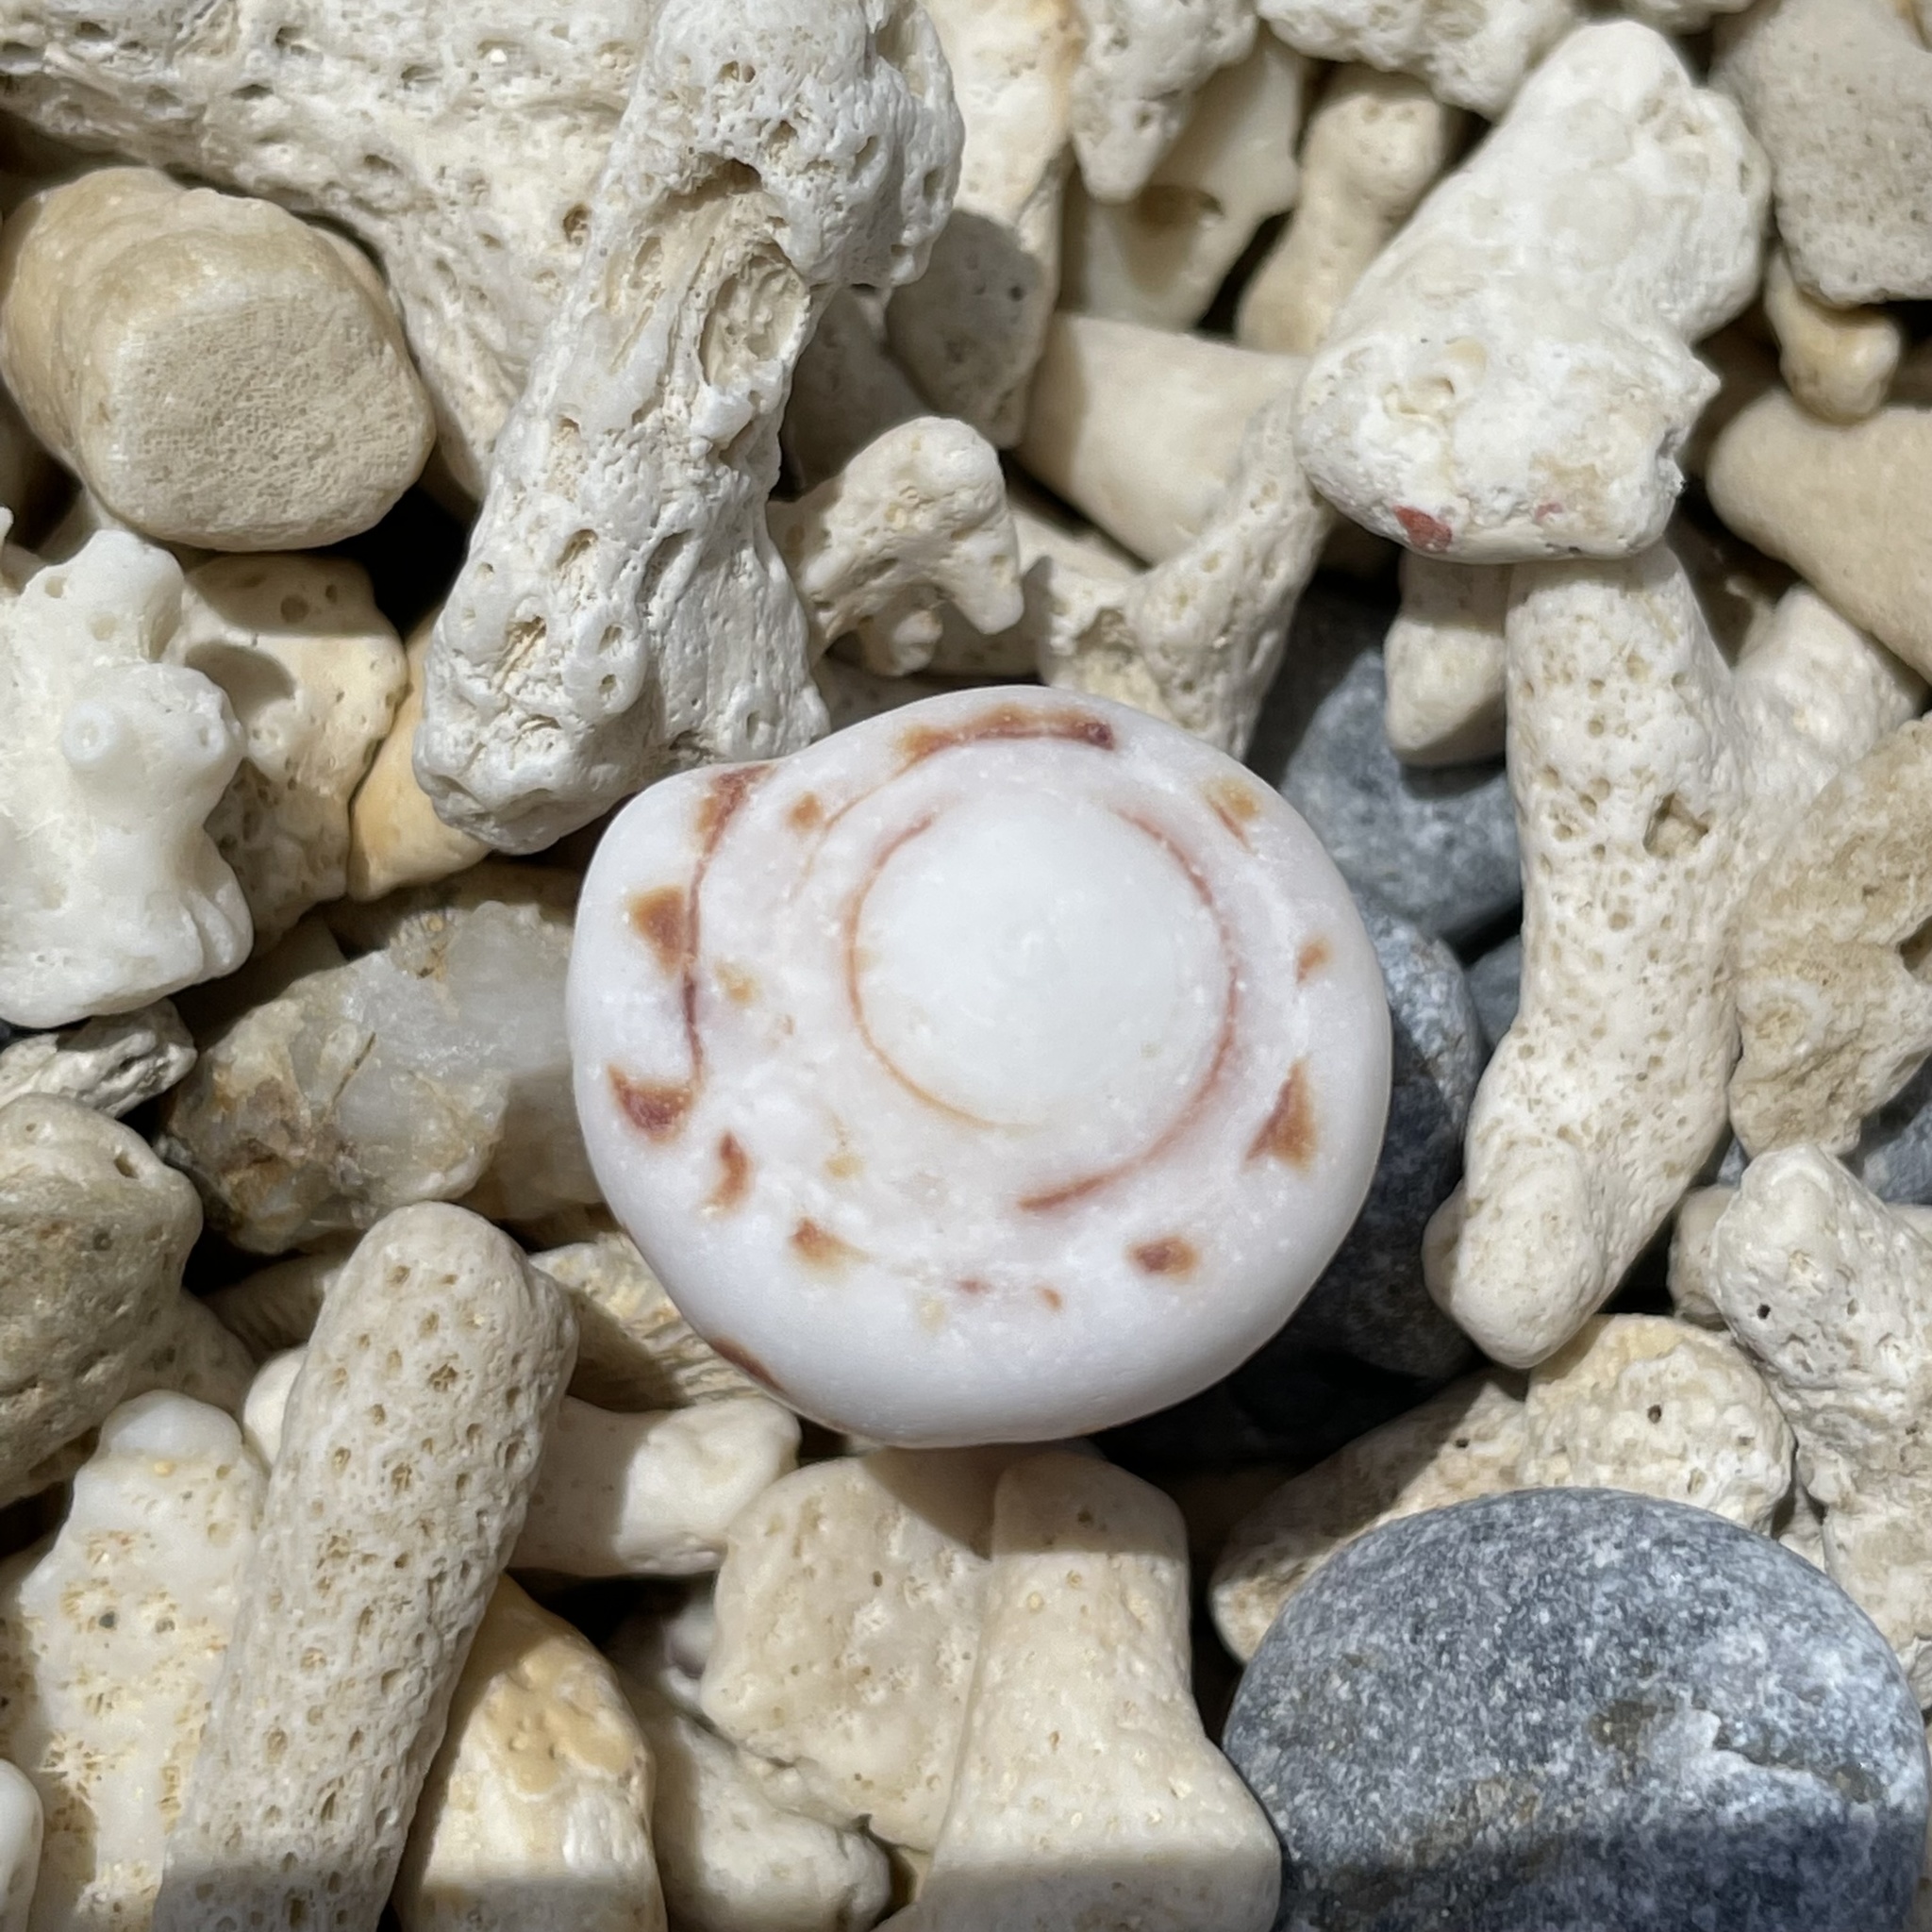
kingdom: Animalia
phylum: Mollusca
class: Gastropoda
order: Neogastropoda
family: Conidae
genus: Conus
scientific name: Conus bandanus
